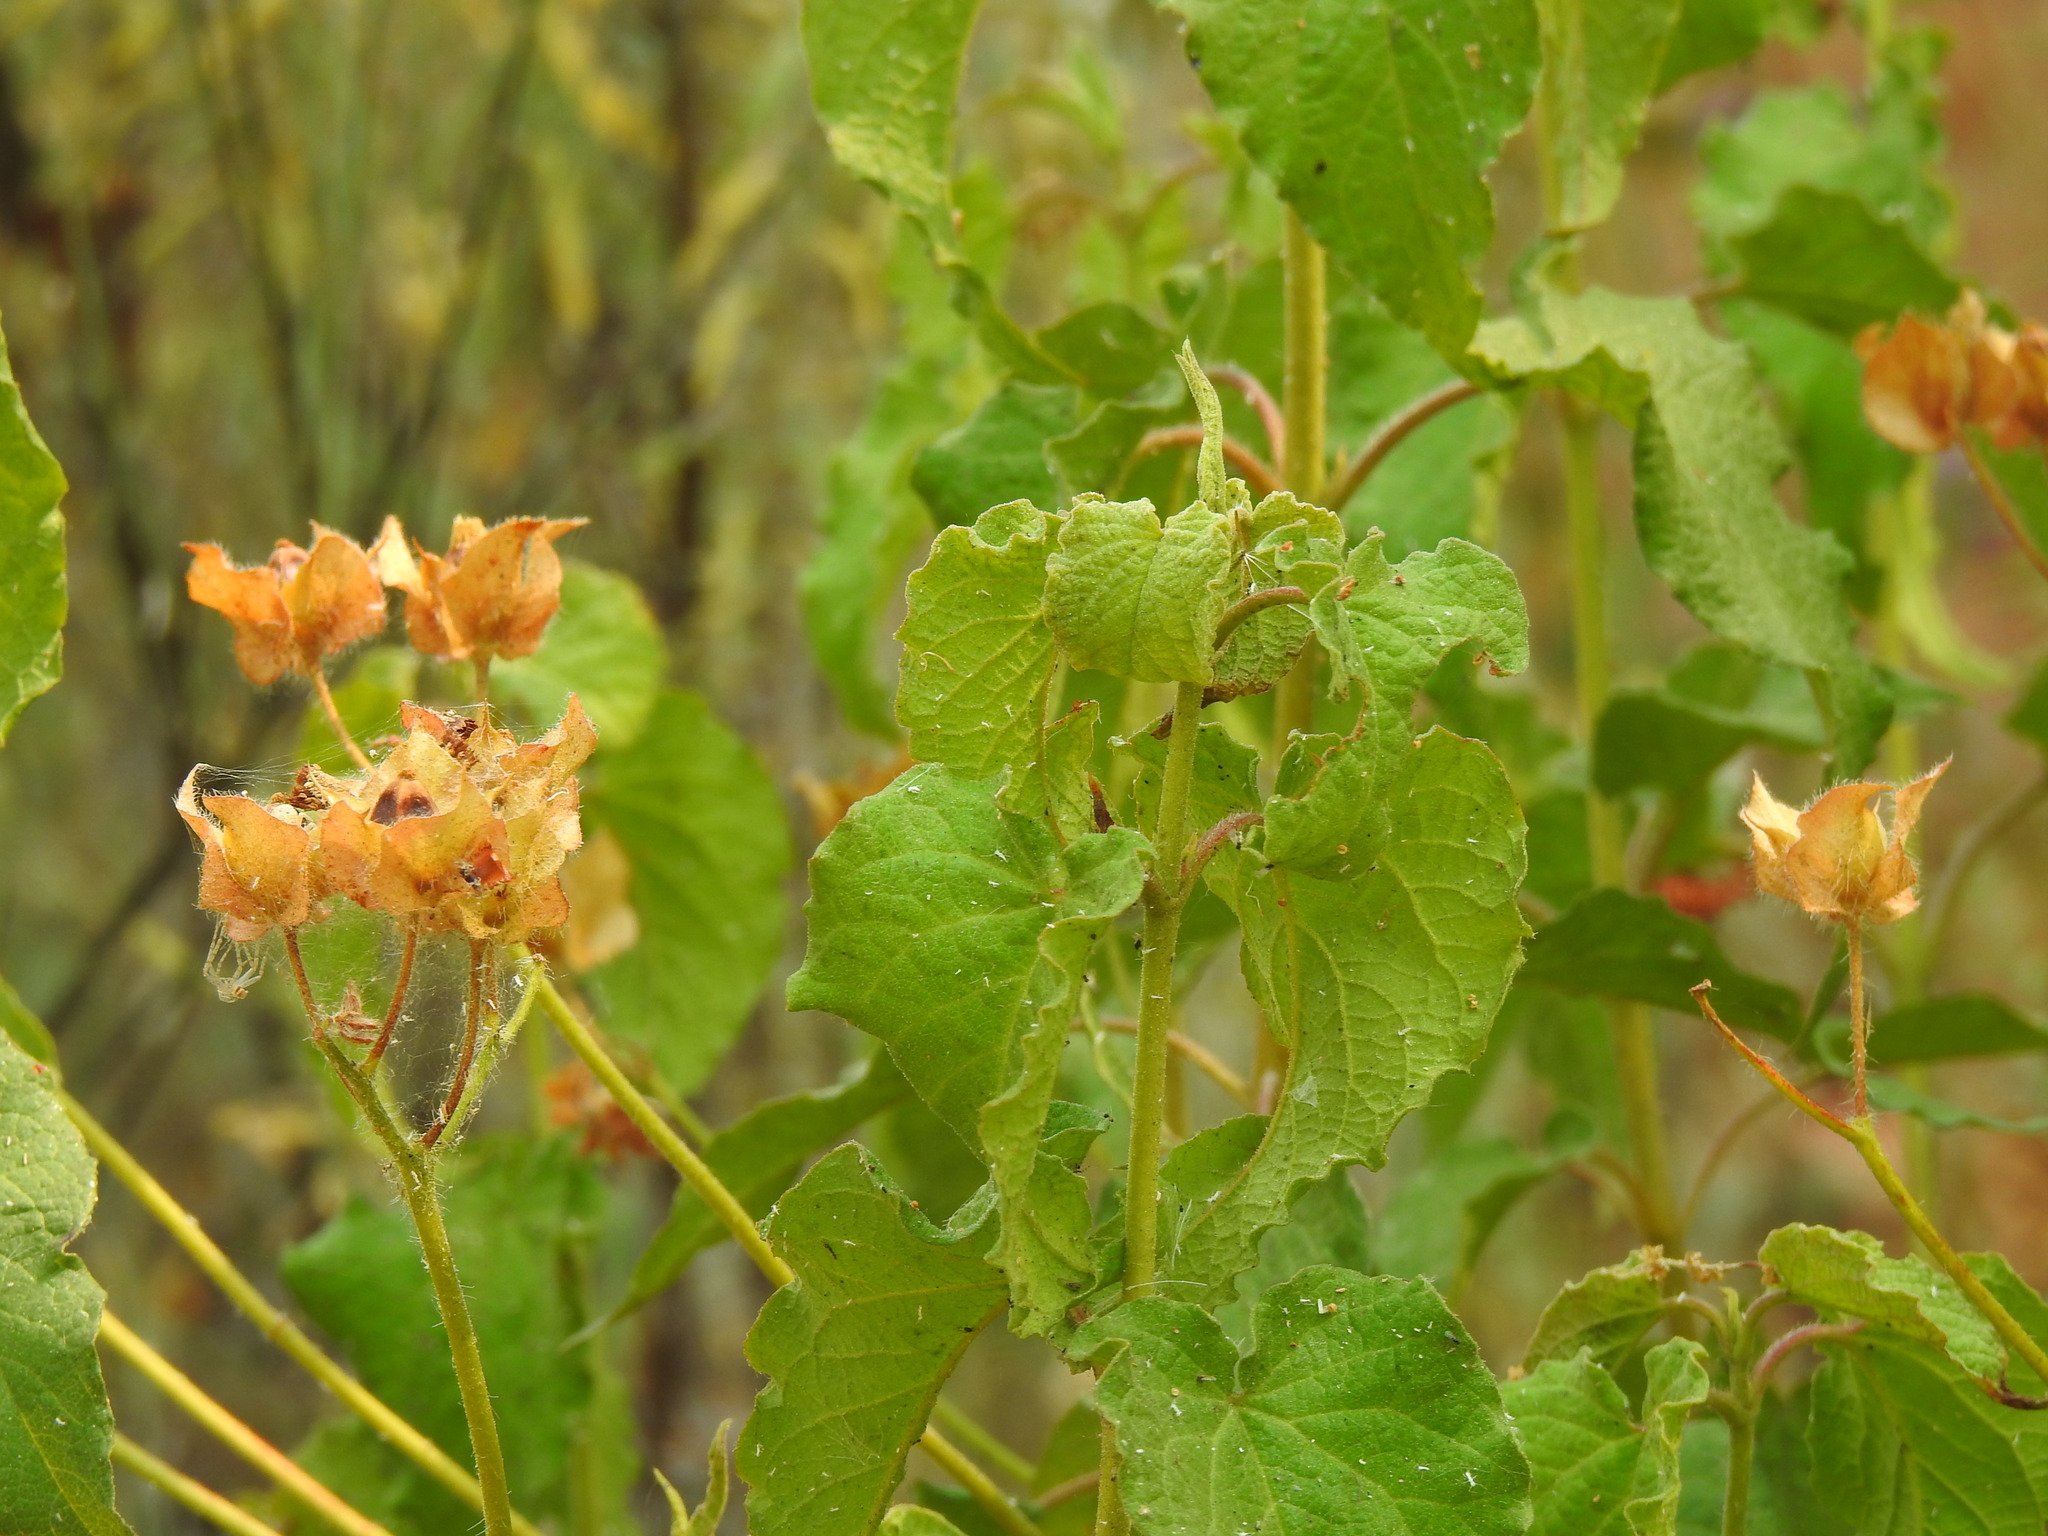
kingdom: Plantae
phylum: Tracheophyta
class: Magnoliopsida
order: Malvales
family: Cistaceae
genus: Cistus
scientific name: Cistus populifolius
